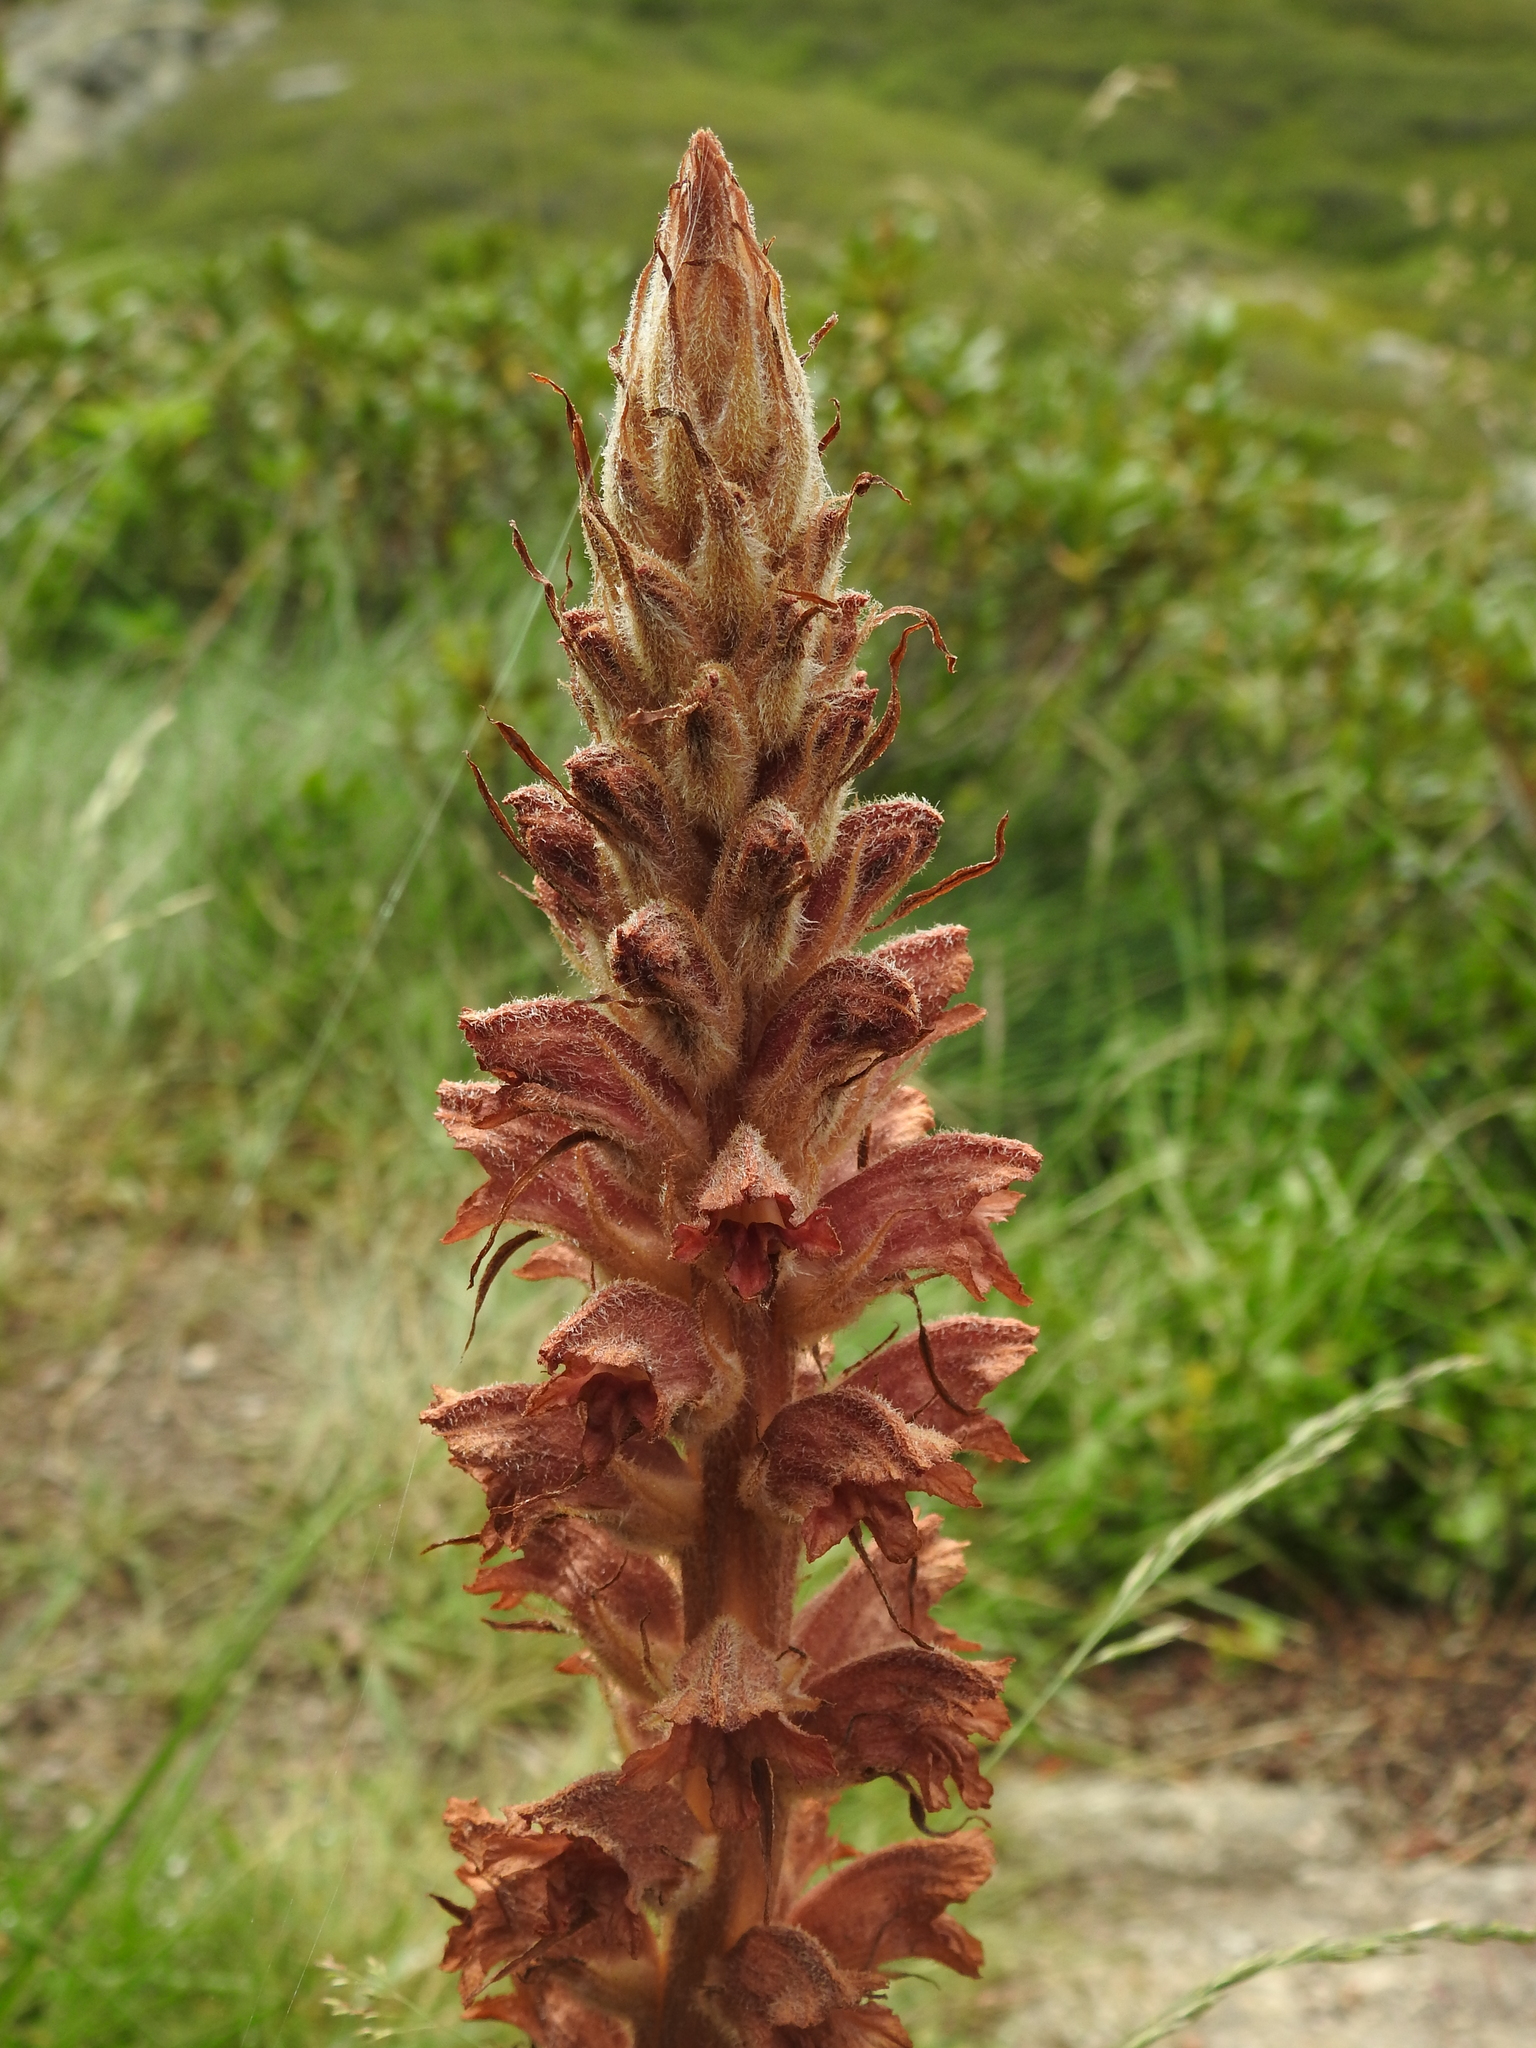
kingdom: Plantae
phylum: Tracheophyta
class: Magnoliopsida
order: Lamiales
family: Orobanchaceae
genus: Orobanche
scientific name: Orobanche rapum-genistae
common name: Greater broomrape
